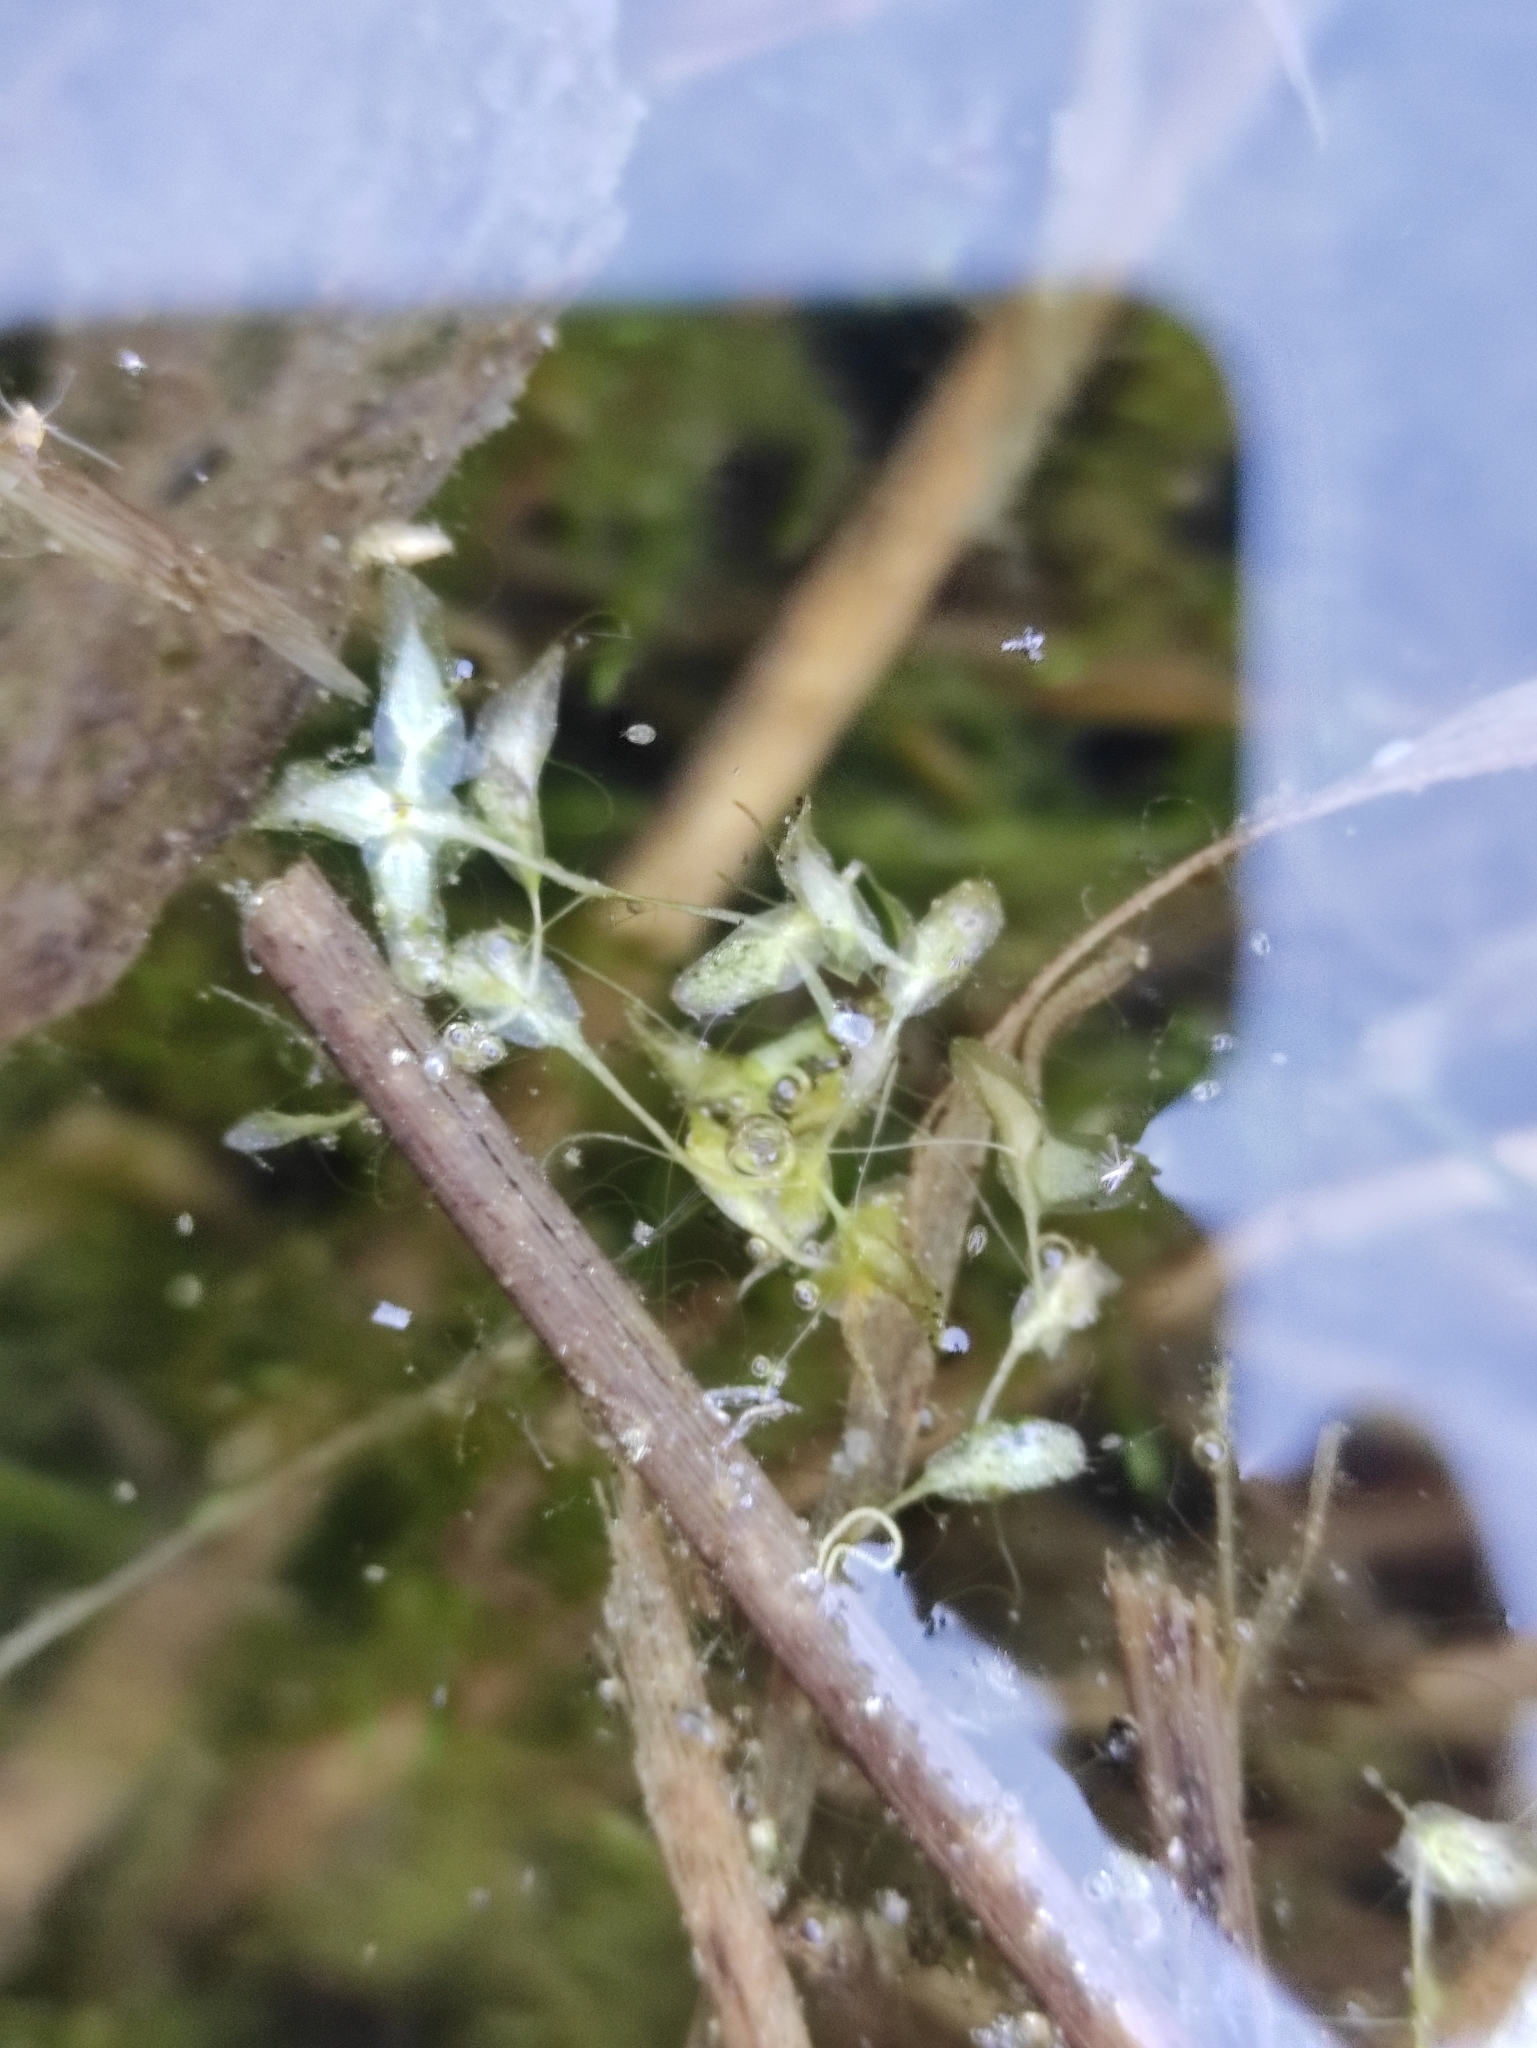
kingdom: Plantae
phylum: Tracheophyta
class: Liliopsida
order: Alismatales
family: Araceae
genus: Lemna
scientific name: Lemna trisulca
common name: Ivy-leaved duckweed
